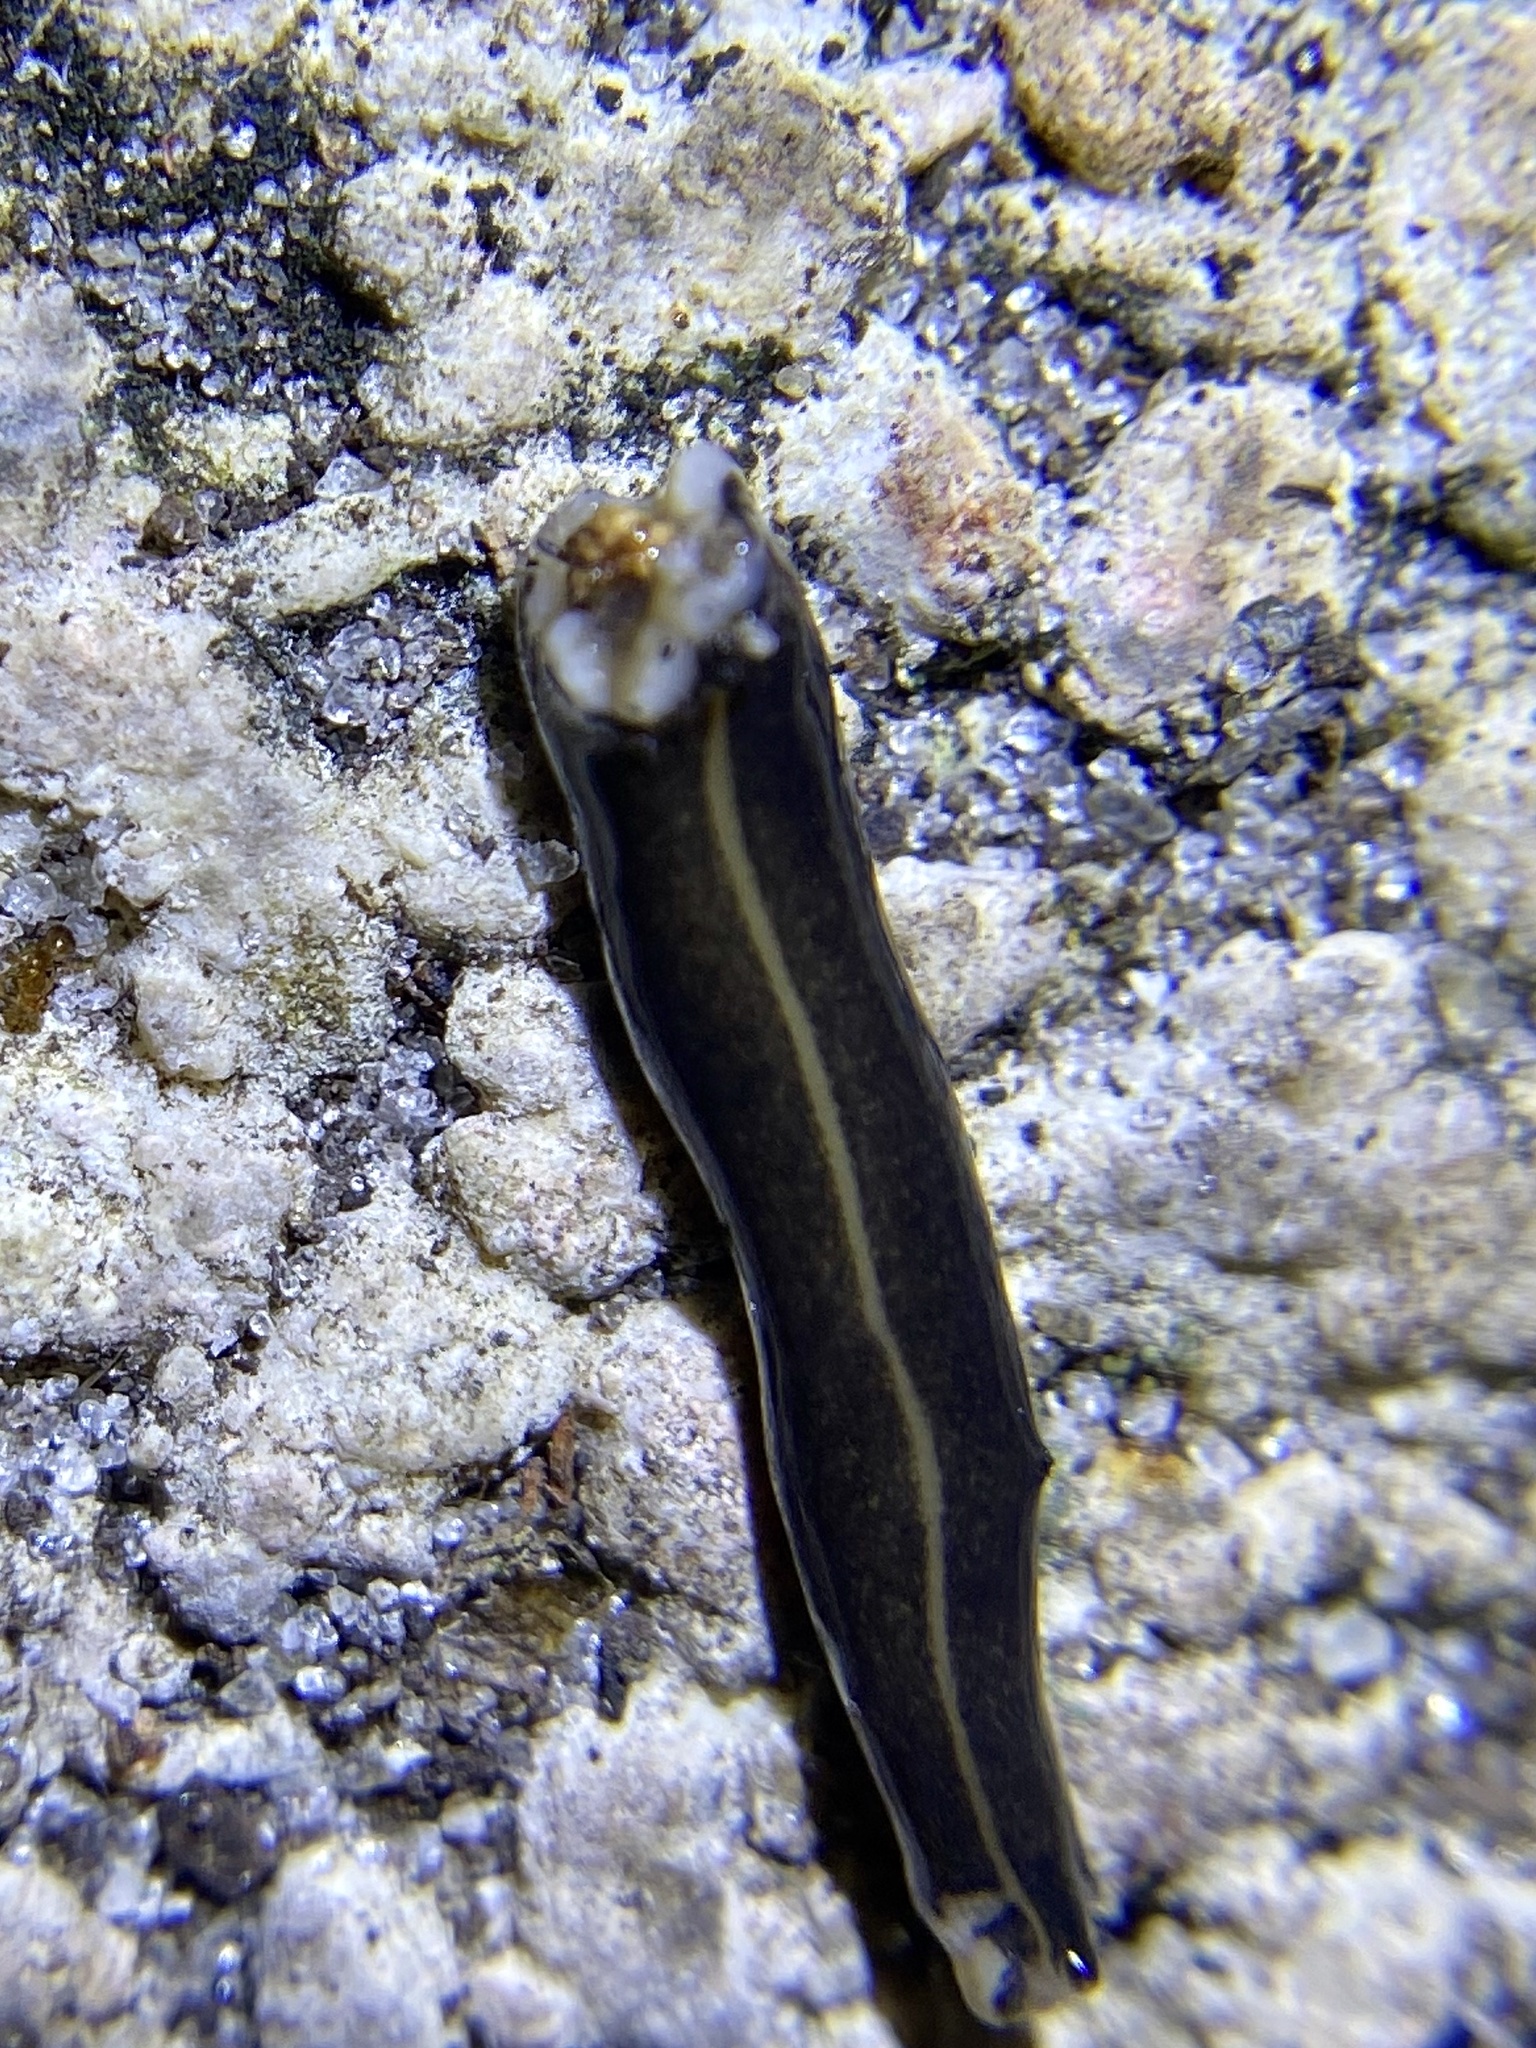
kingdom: Animalia
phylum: Platyhelminthes
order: Tricladida
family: Geoplanidae
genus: Platydemus
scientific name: Platydemus manokwari
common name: New guinea flatworm
